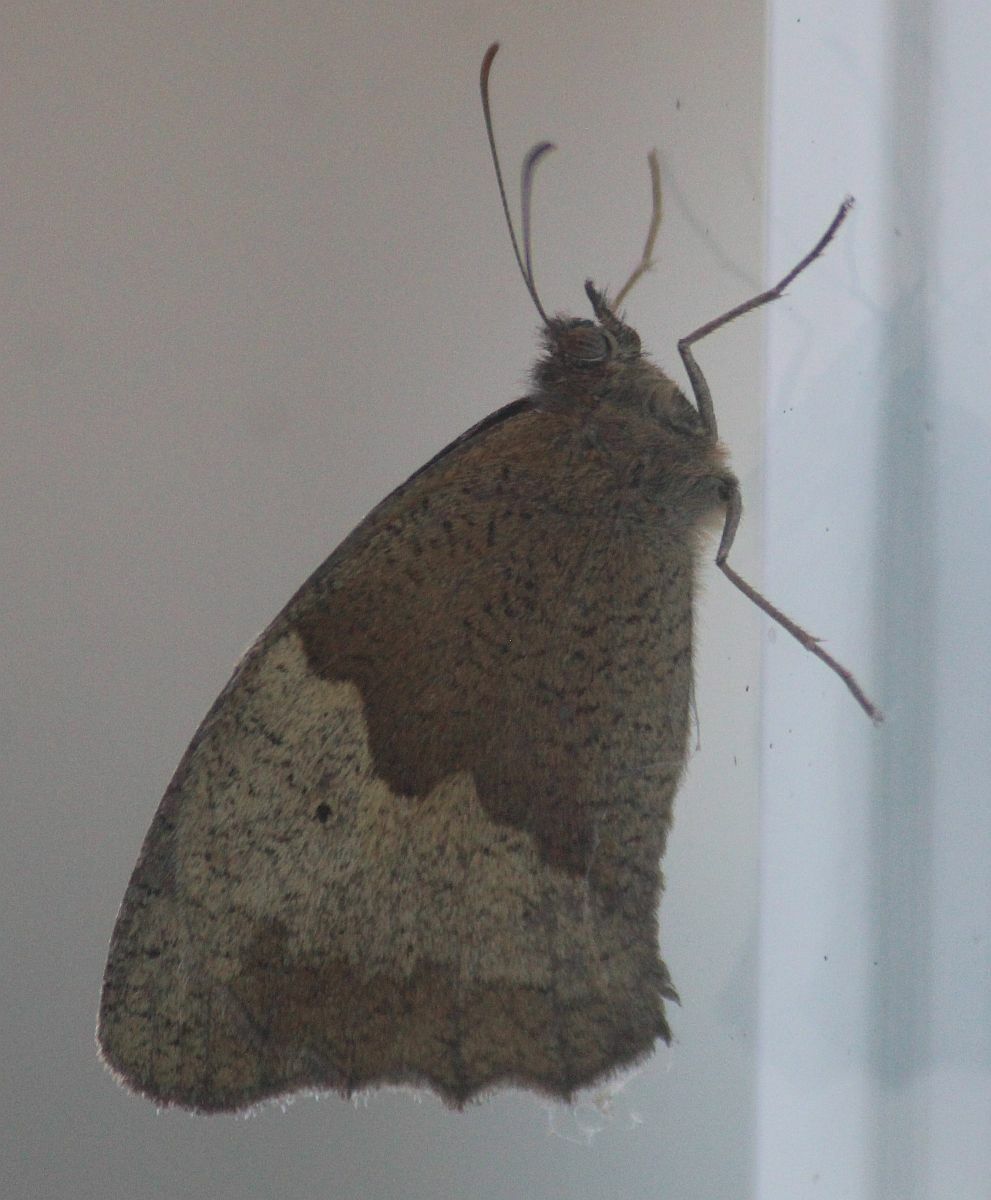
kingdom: Animalia
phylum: Arthropoda
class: Insecta
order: Lepidoptera
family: Nymphalidae
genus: Maniola
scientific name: Maniola jurtina
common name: Meadow brown
